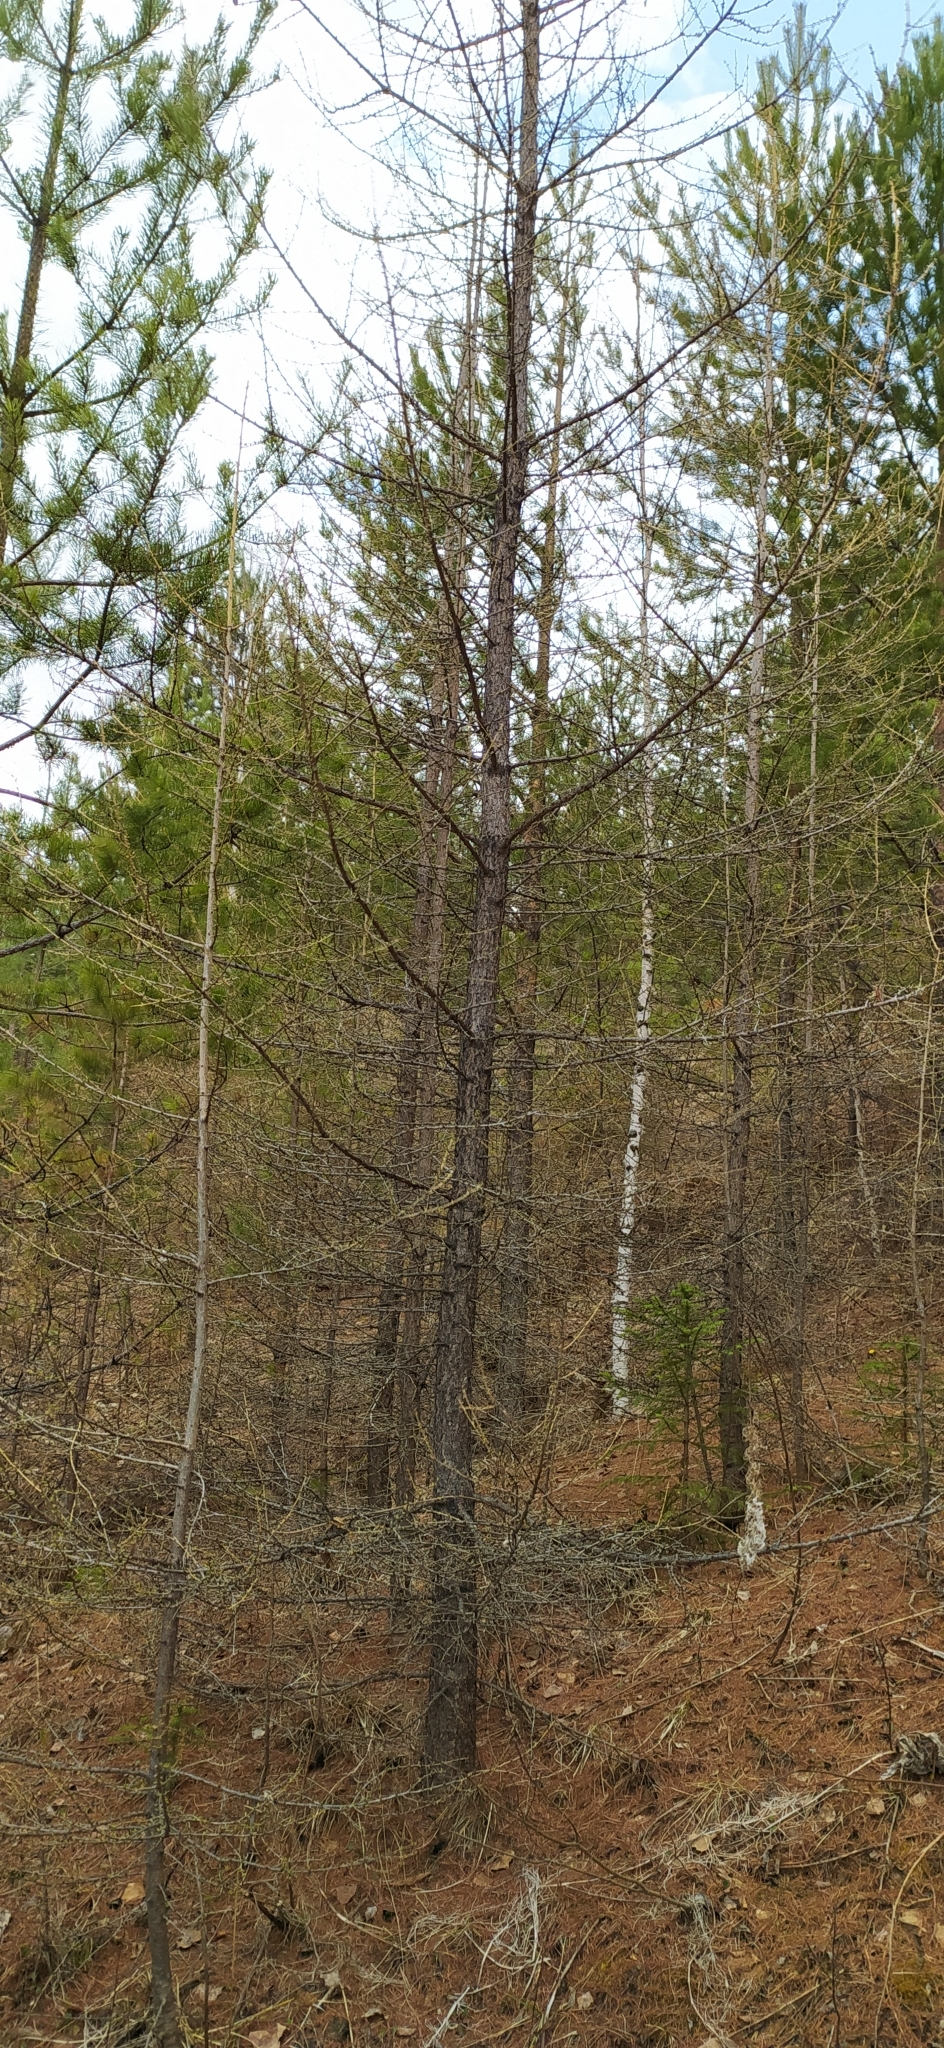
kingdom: Plantae
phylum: Tracheophyta
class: Pinopsida
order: Pinales
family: Pinaceae
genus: Larix
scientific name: Larix sibirica
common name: Siberian larch
